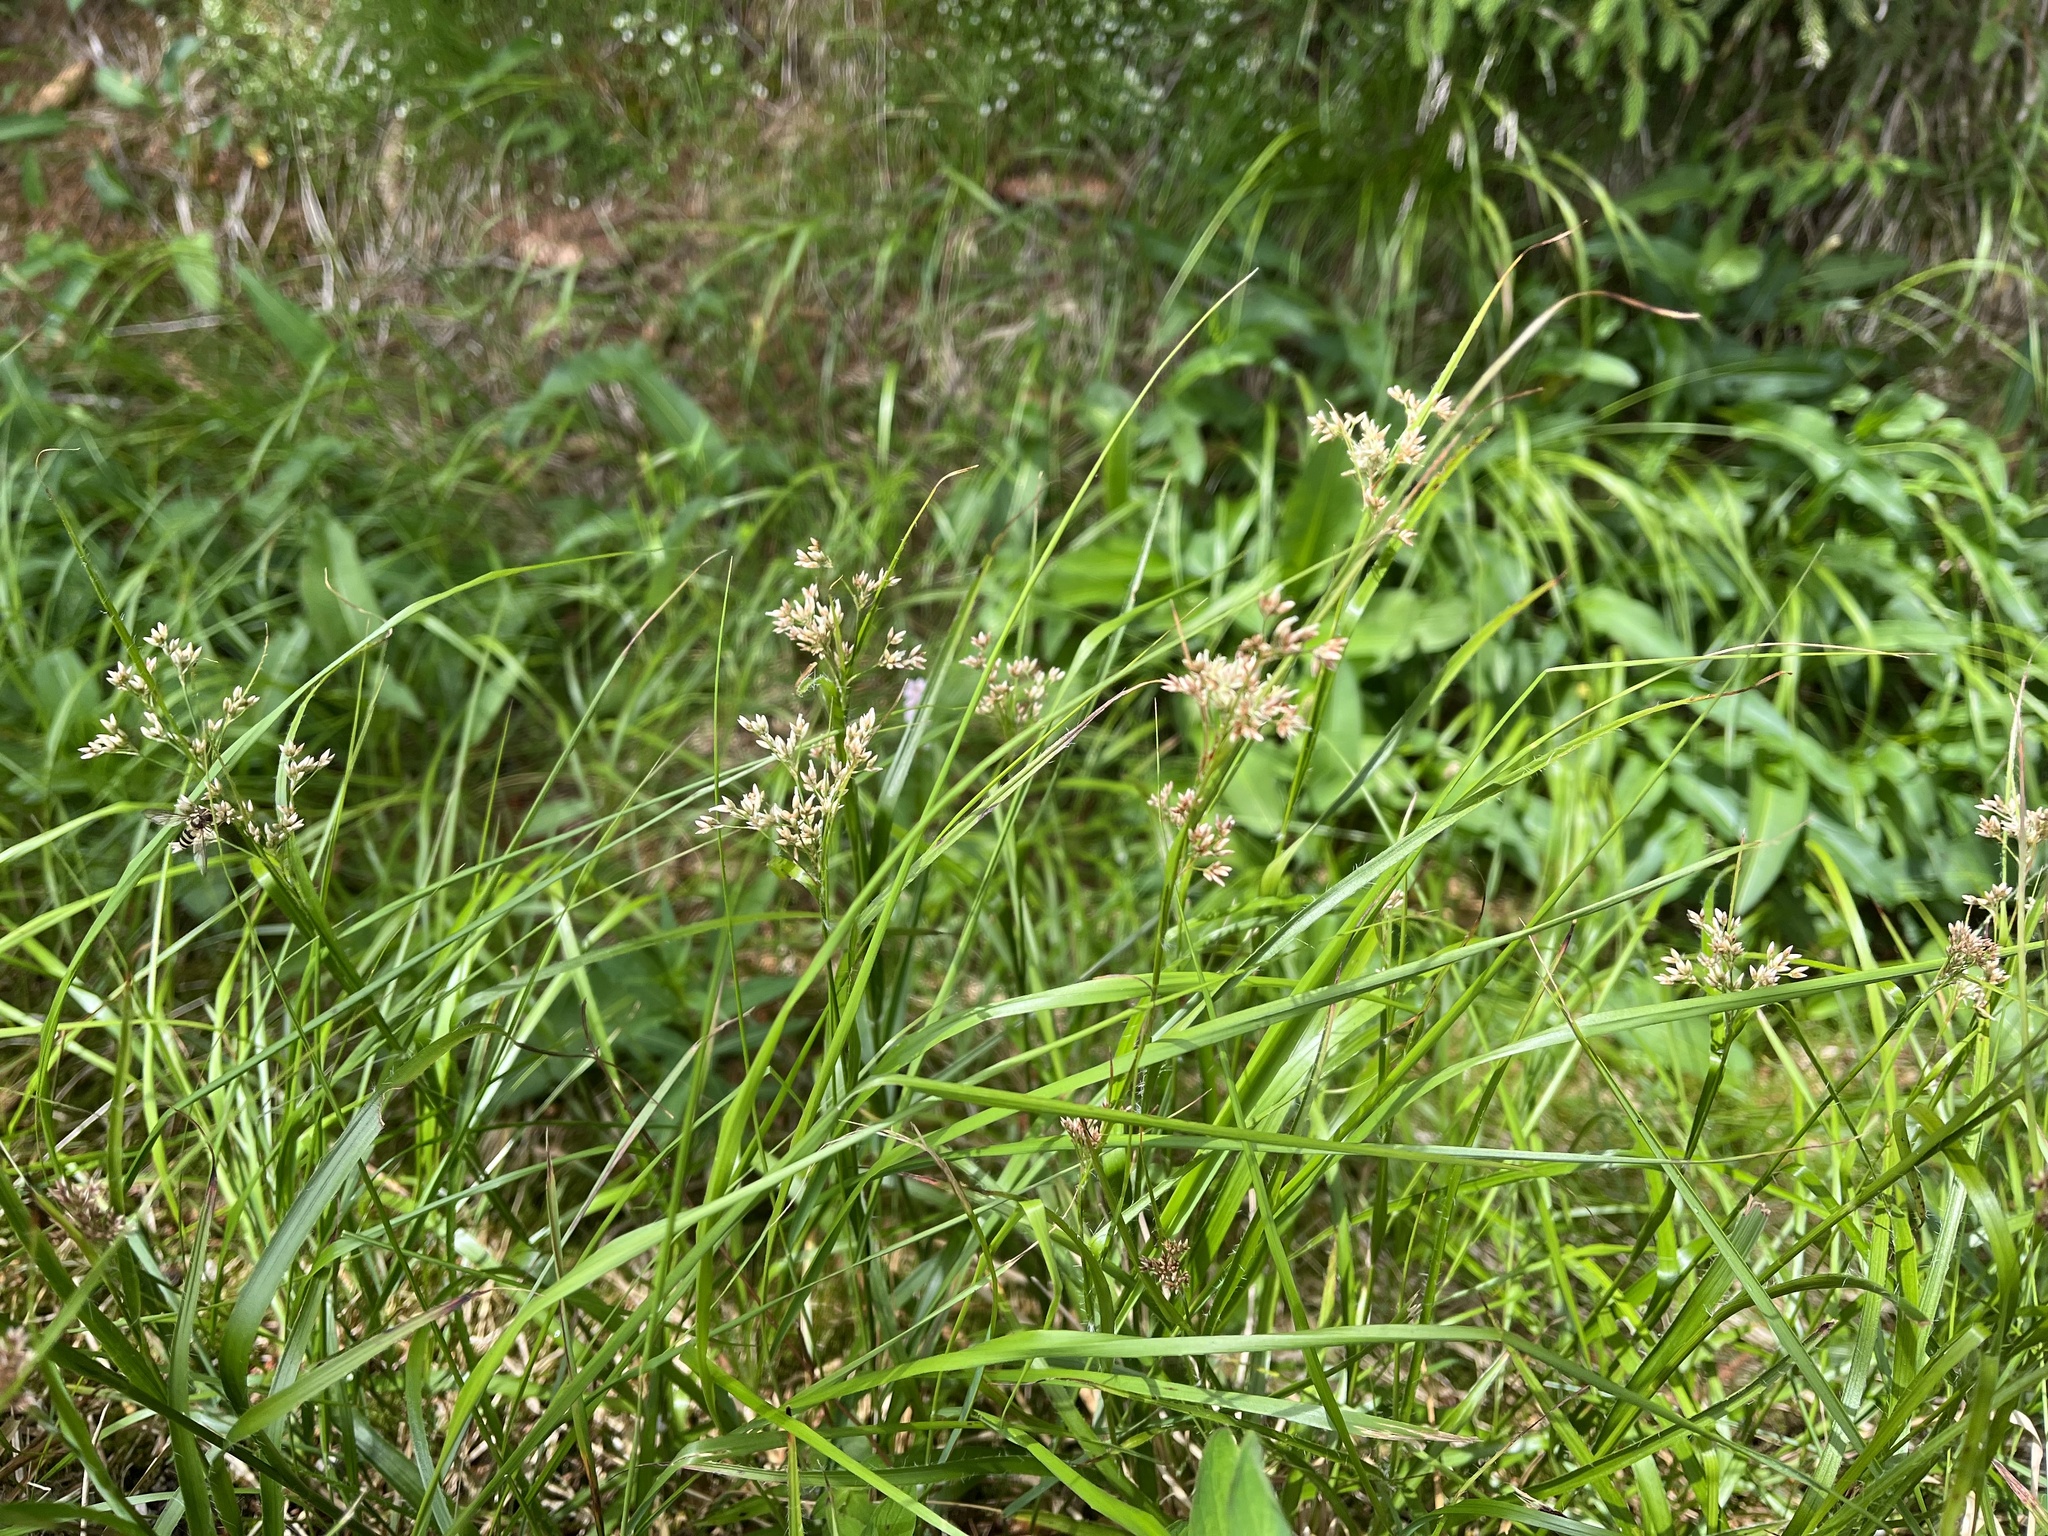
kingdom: Plantae
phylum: Tracheophyta
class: Liliopsida
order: Poales
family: Juncaceae
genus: Luzula
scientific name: Luzula luzuloides
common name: White wood-rush
